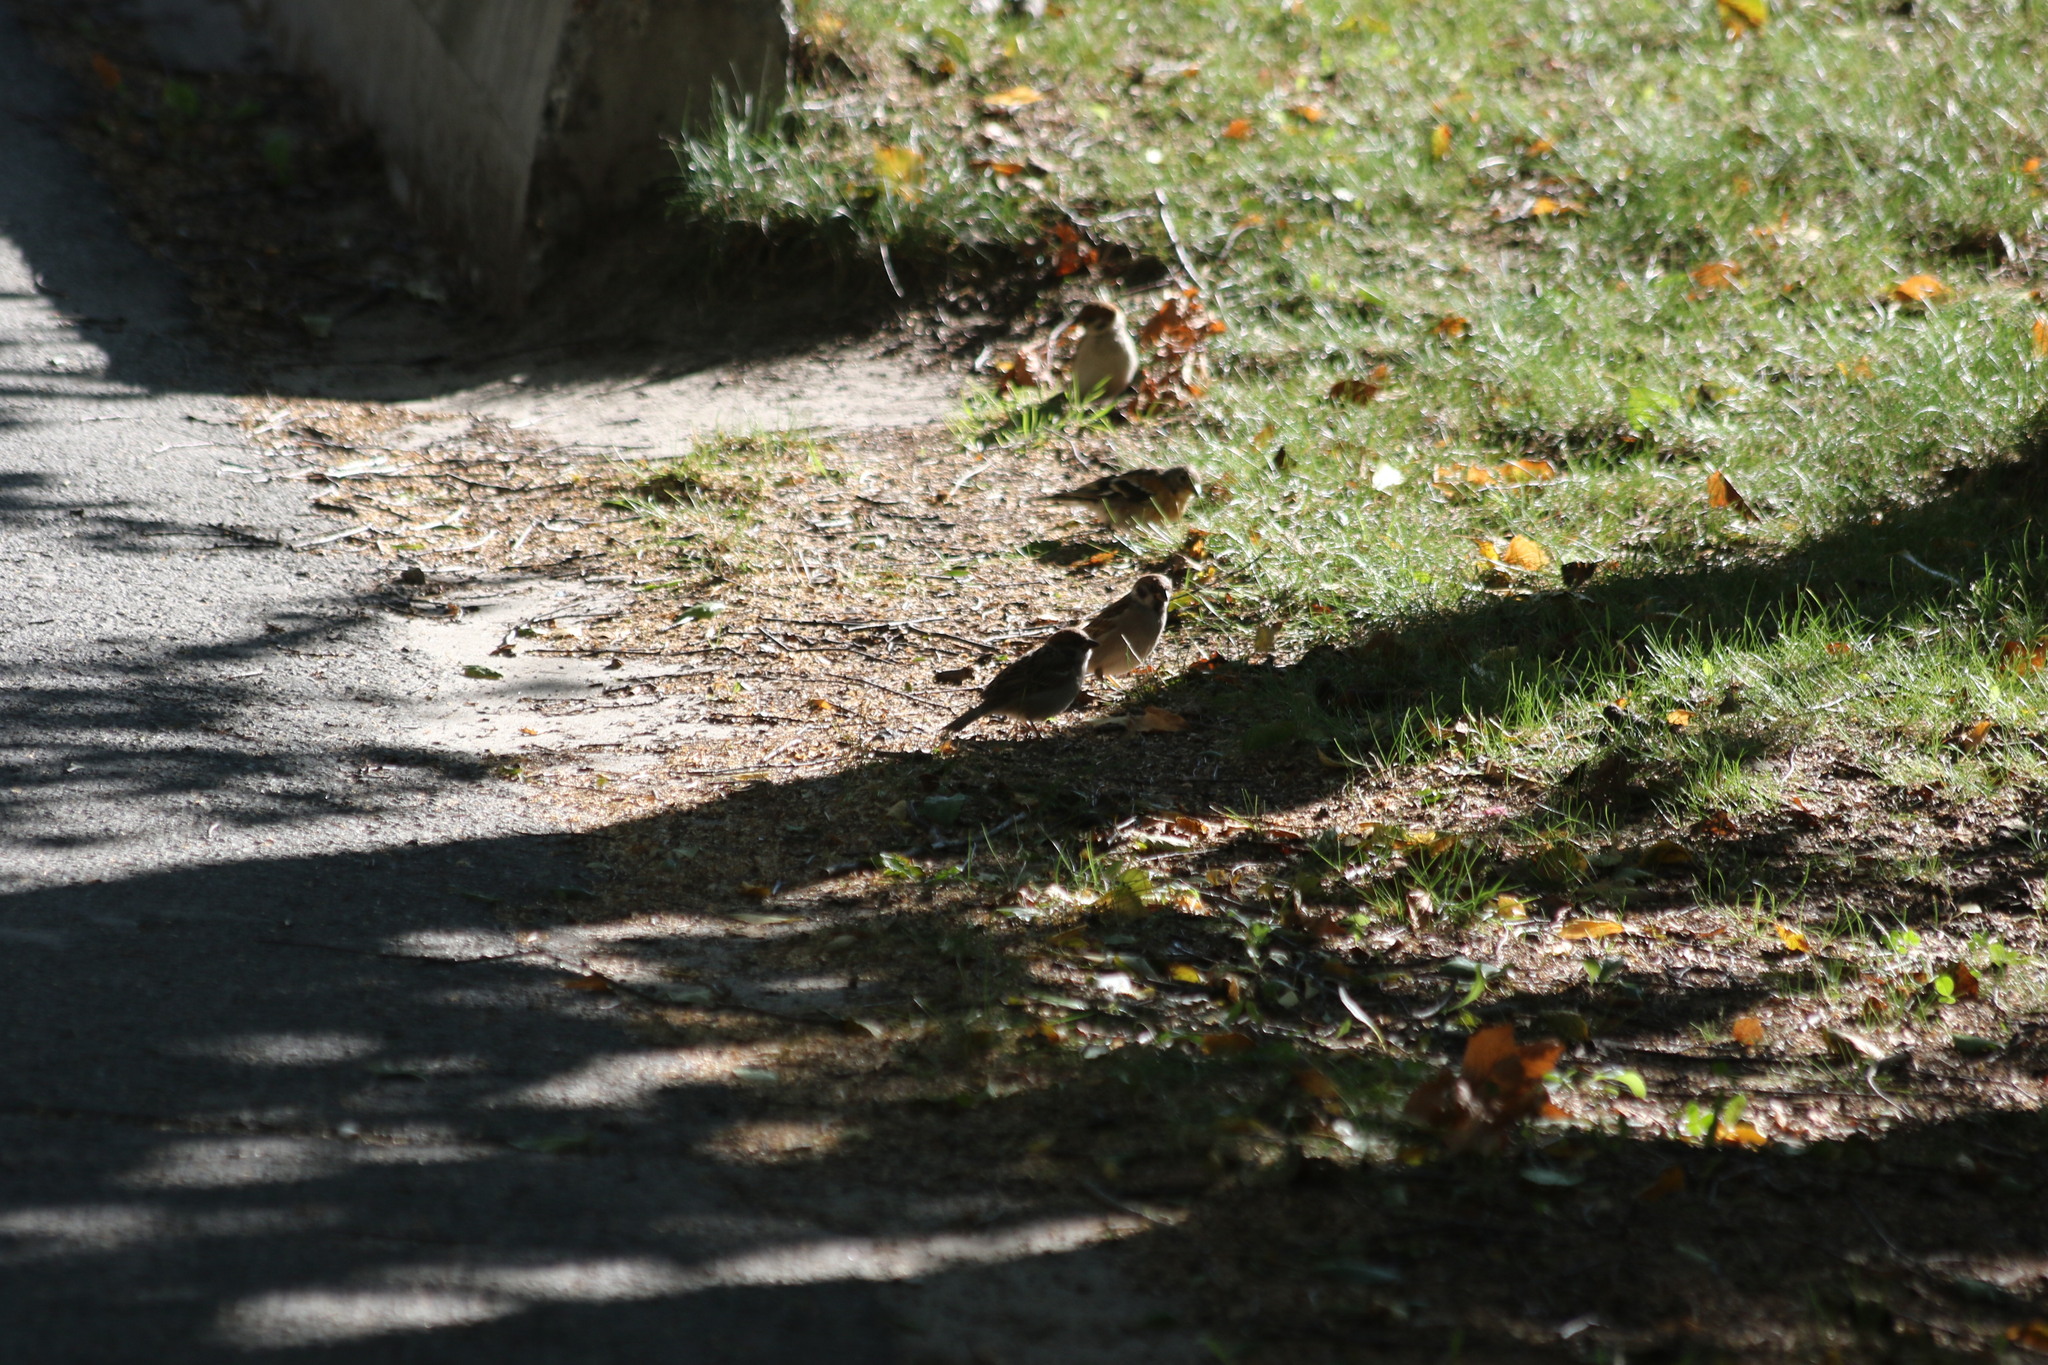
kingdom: Animalia
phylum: Chordata
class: Aves
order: Passeriformes
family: Passeridae
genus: Passer
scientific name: Passer montanus
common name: Eurasian tree sparrow
